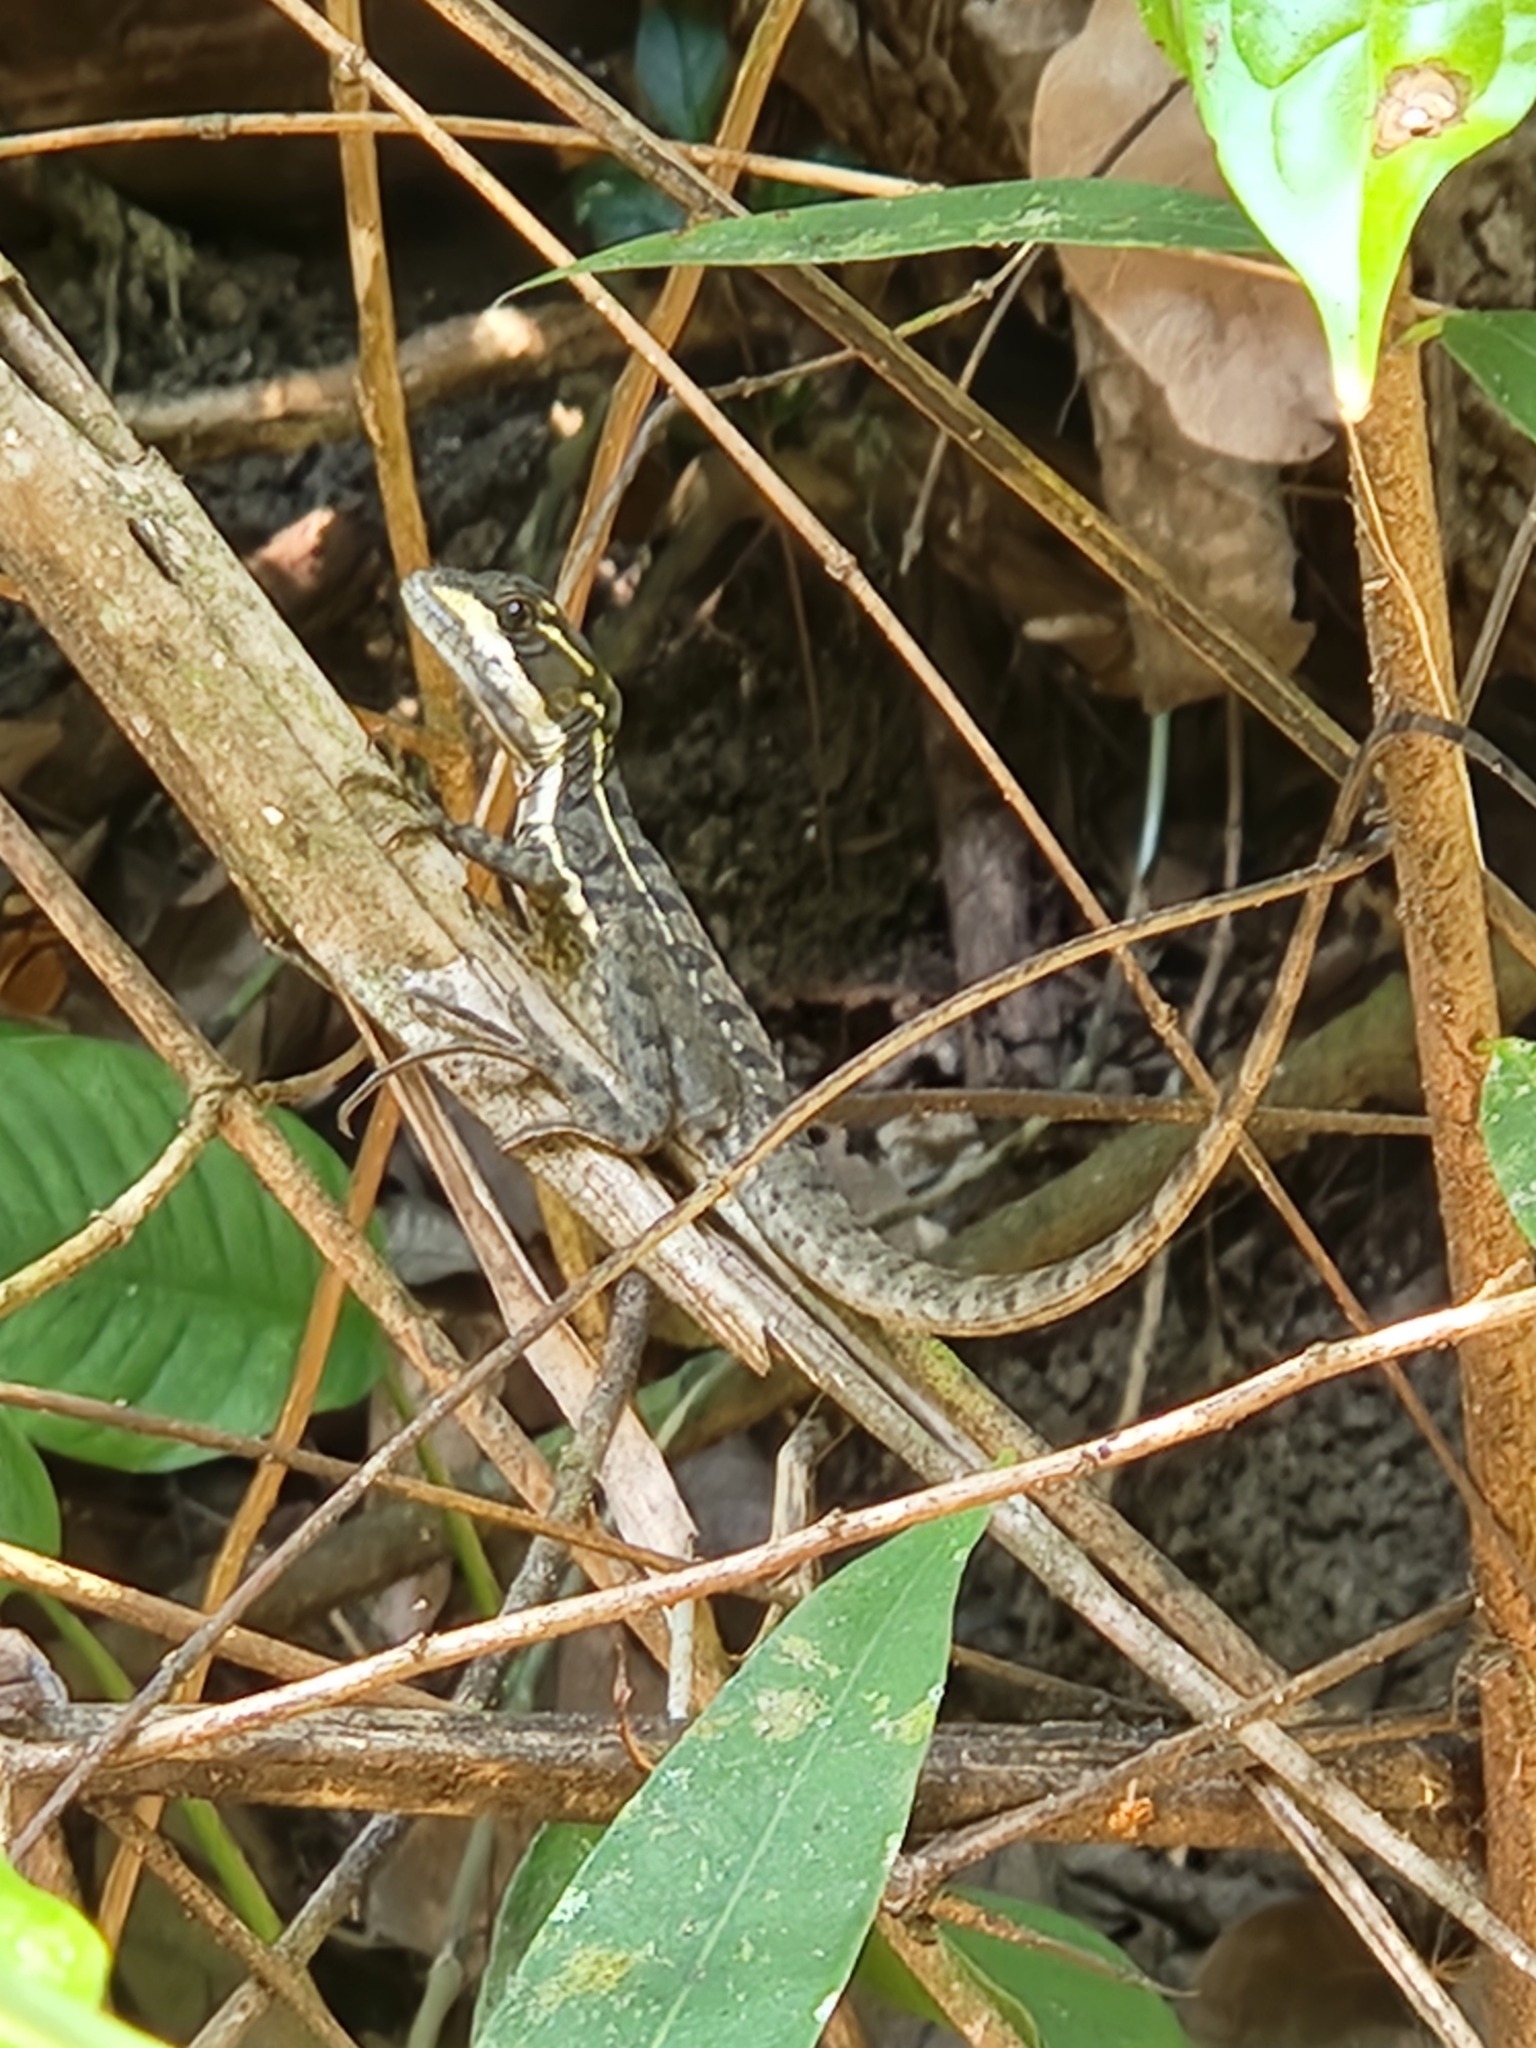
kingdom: Animalia
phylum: Chordata
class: Squamata
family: Corytophanidae
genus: Basiliscus
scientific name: Basiliscus basiliscus
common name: Common basilisk
